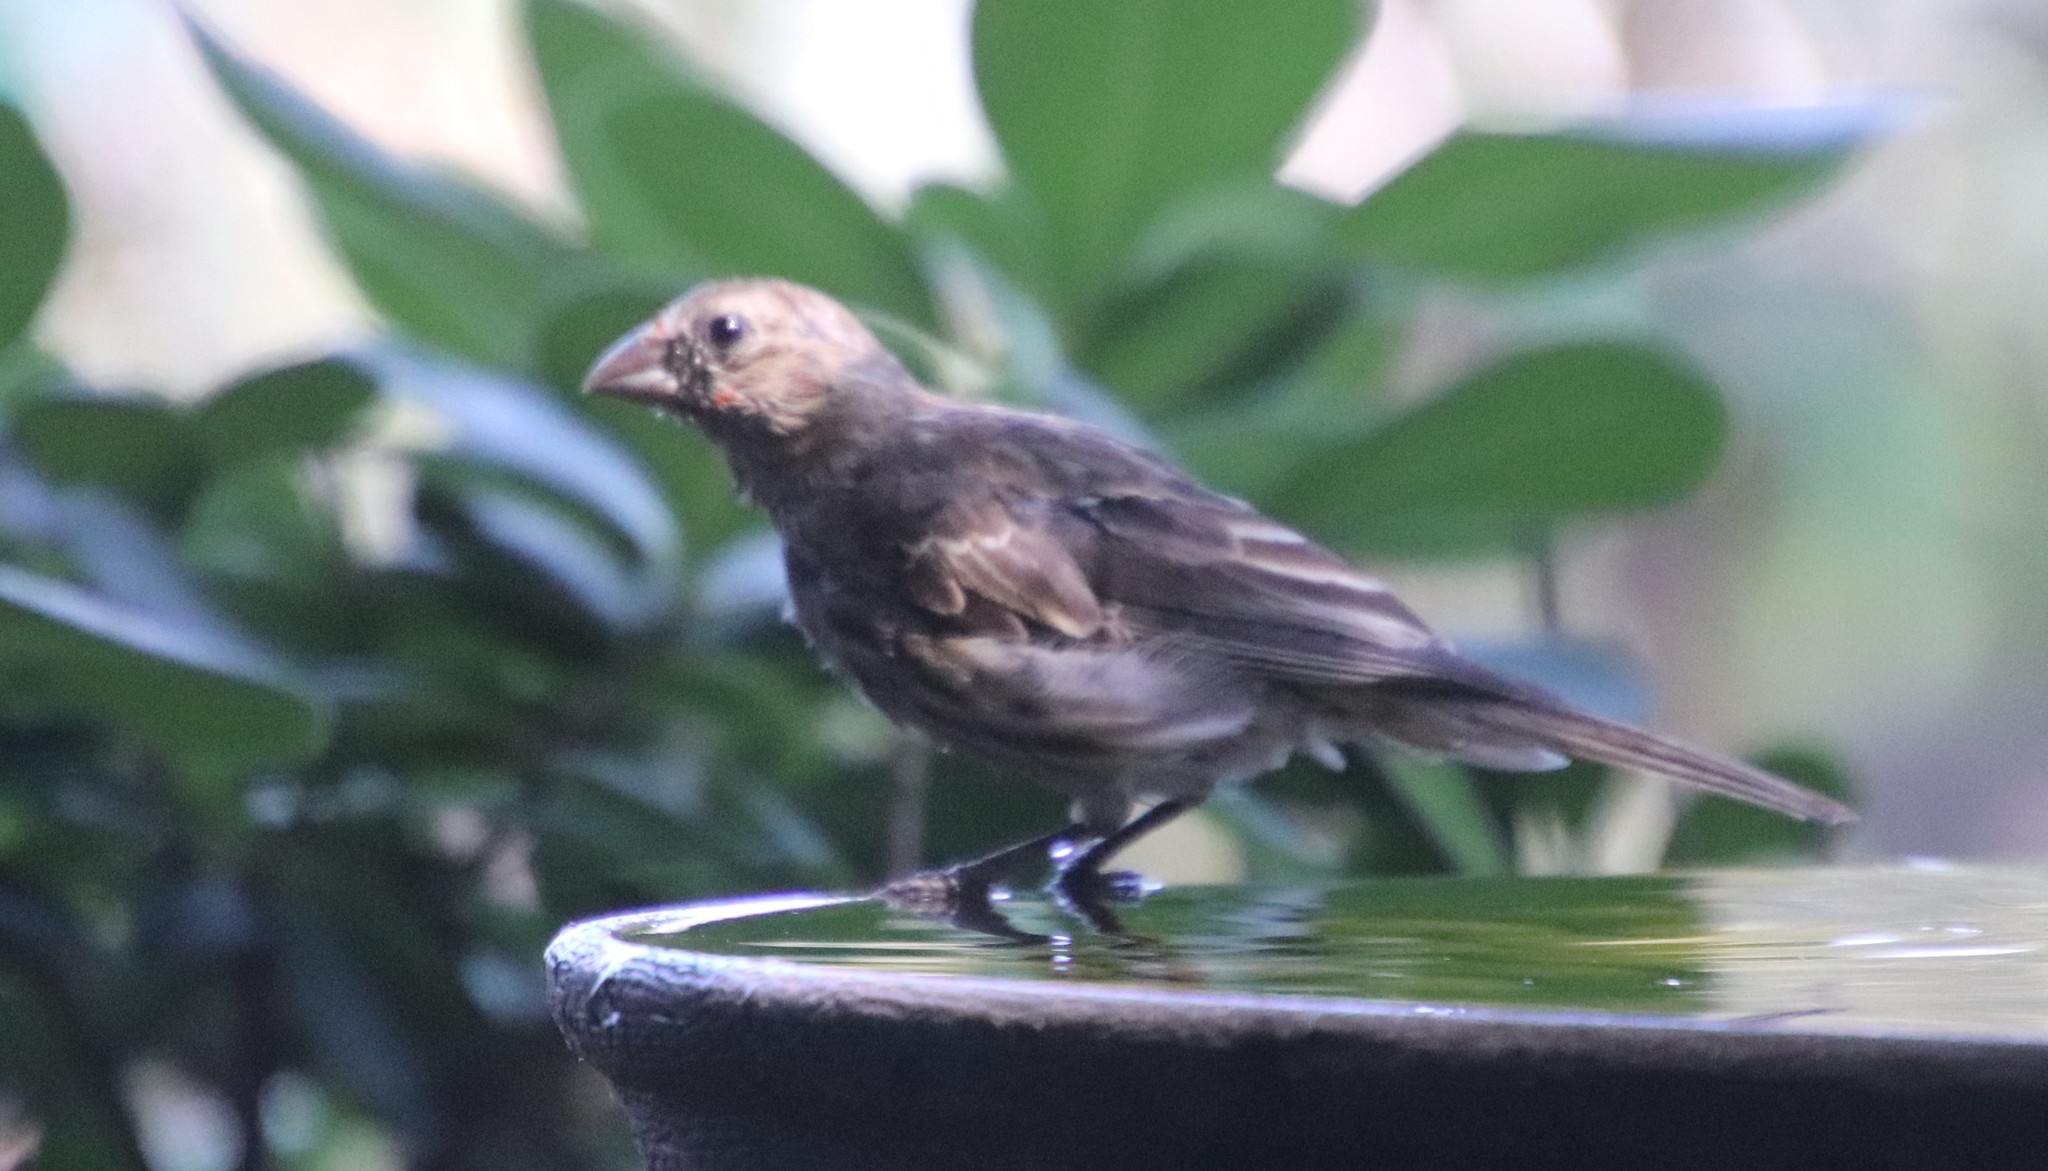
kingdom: Animalia
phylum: Chordata
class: Aves
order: Passeriformes
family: Fringillidae
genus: Haemorhous
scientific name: Haemorhous mexicanus
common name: House finch
